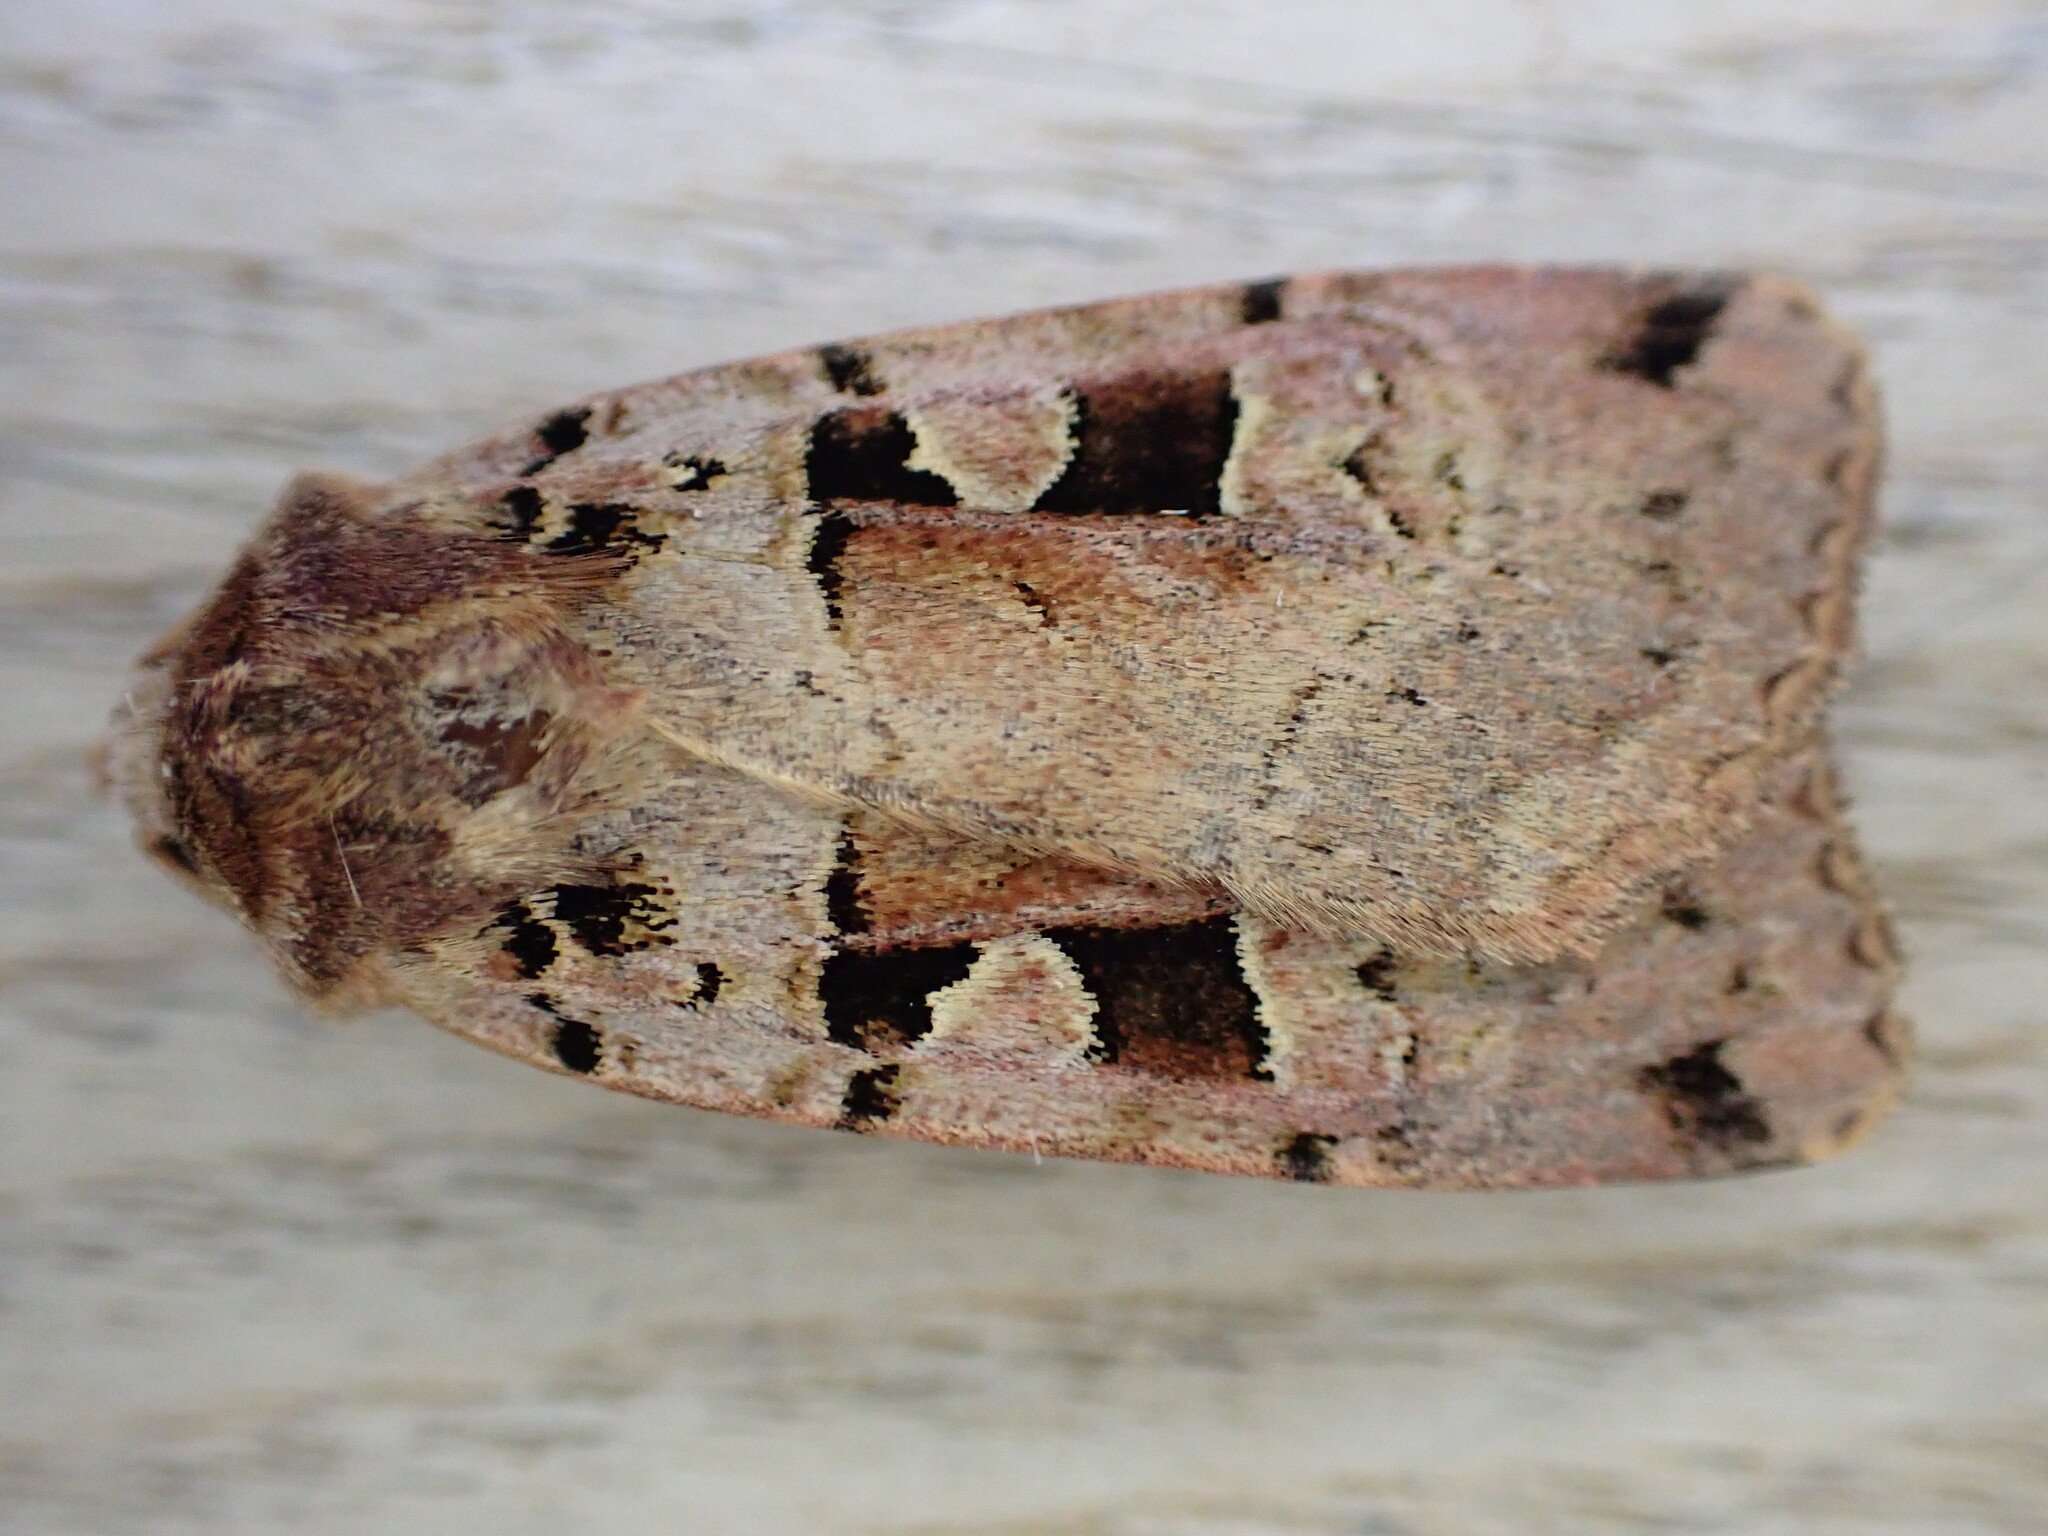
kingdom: Animalia
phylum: Arthropoda
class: Insecta
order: Lepidoptera
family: Noctuidae
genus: Xestia
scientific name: Xestia triangulum
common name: Double square-spot
